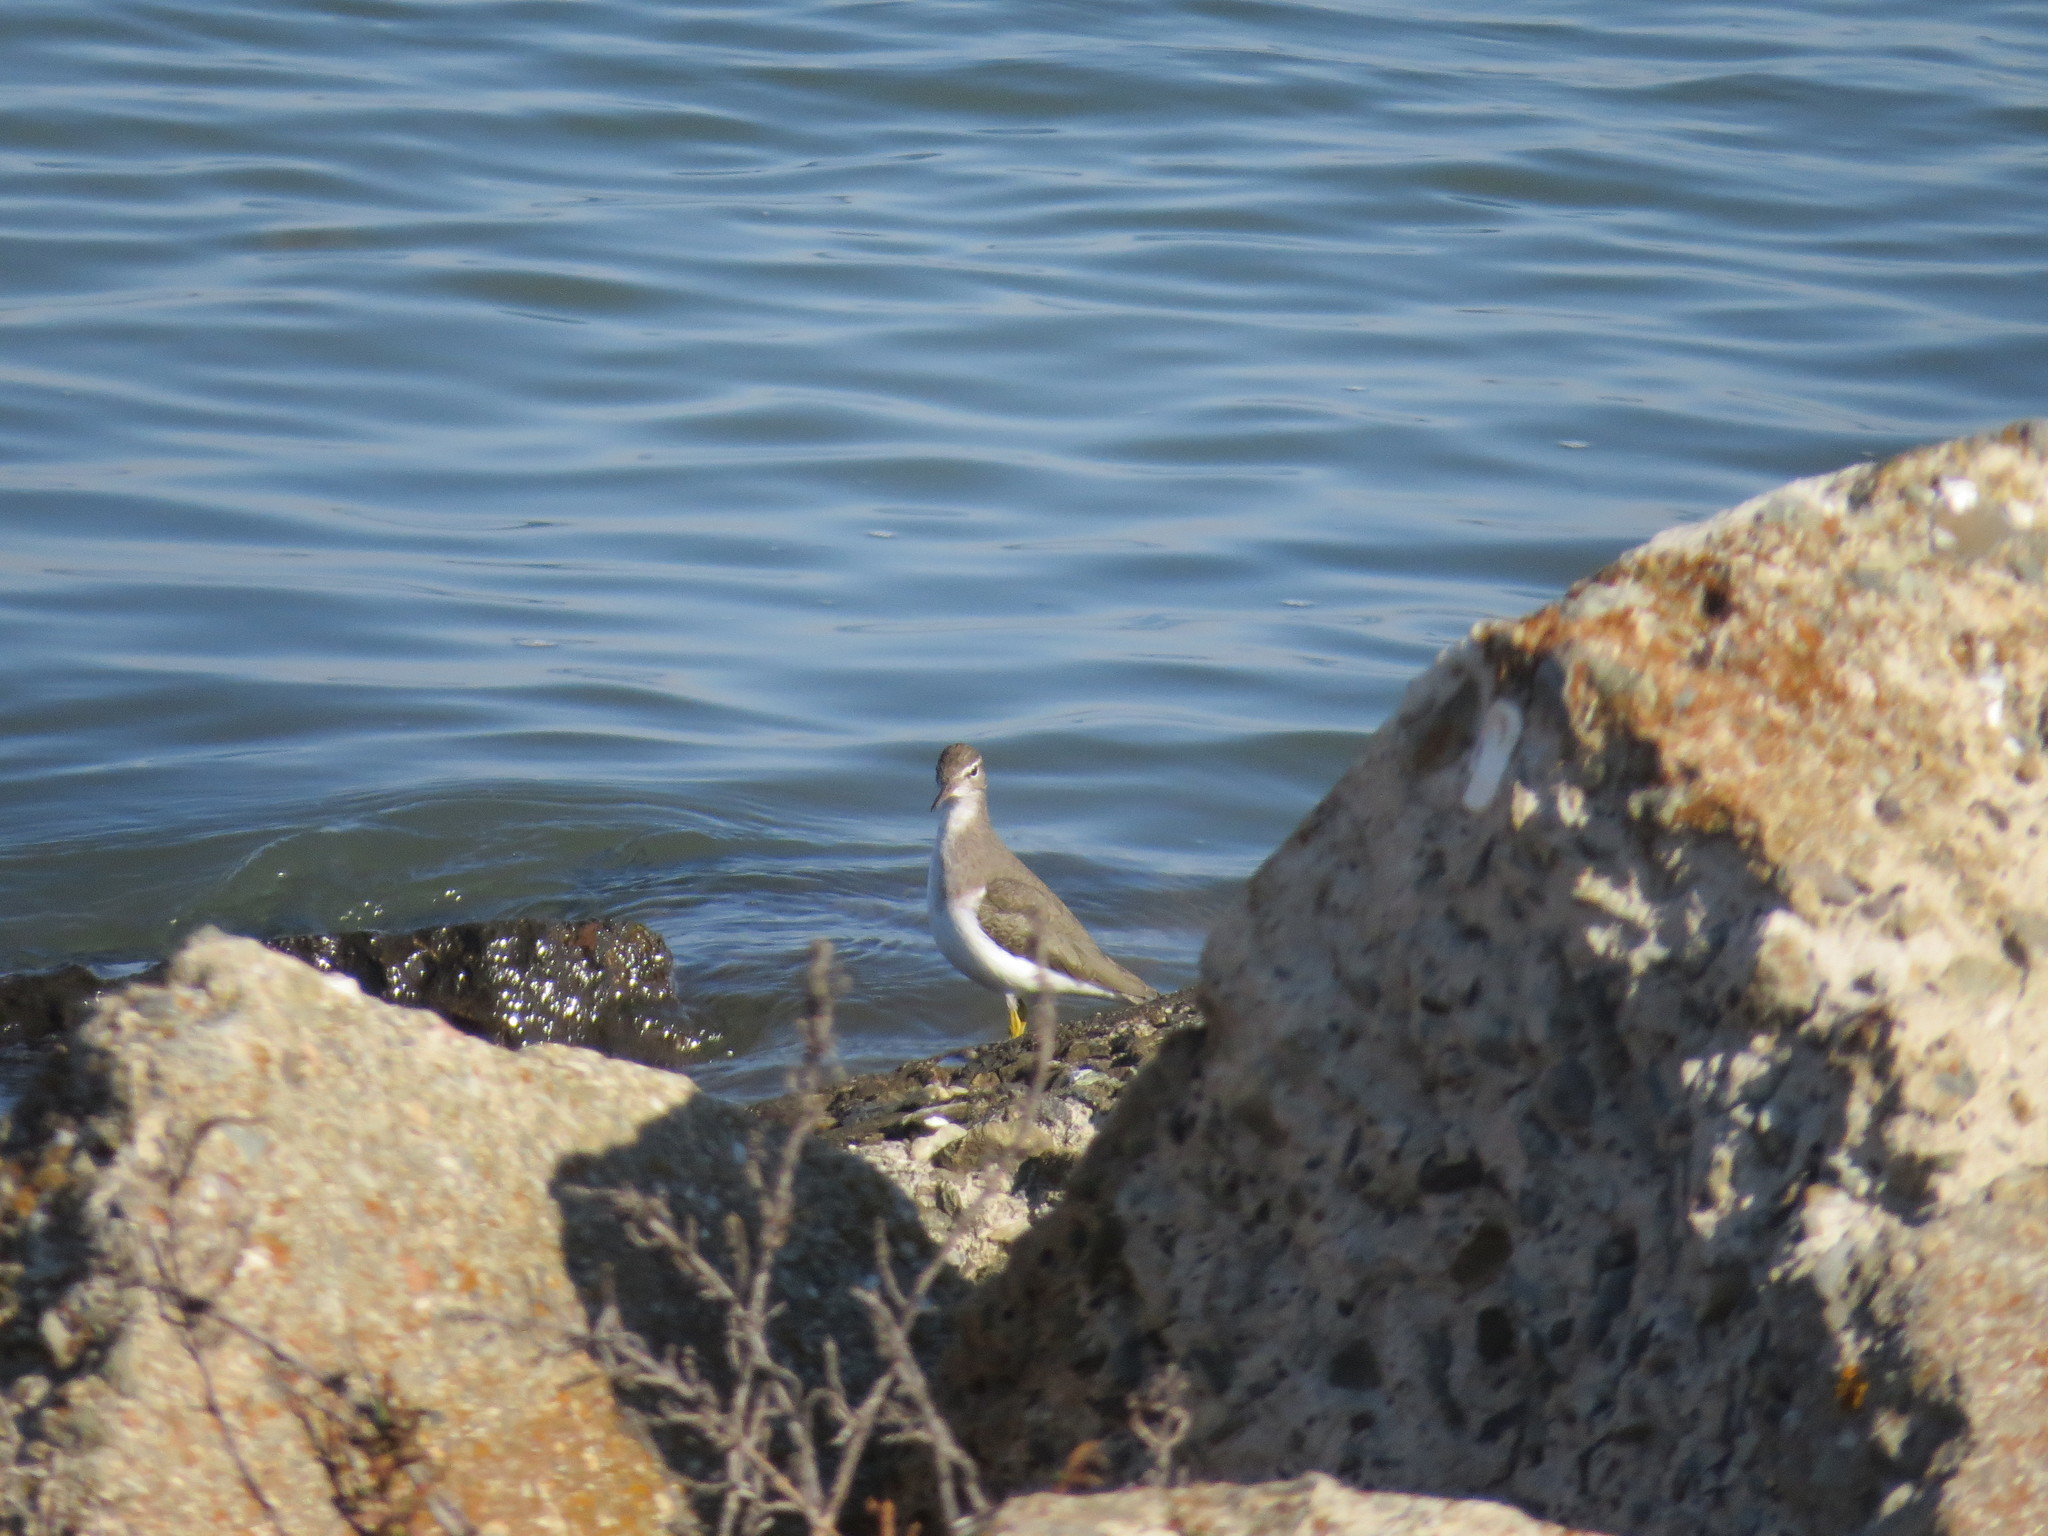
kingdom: Animalia
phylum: Chordata
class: Aves
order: Charadriiformes
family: Scolopacidae
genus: Actitis
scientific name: Actitis macularius
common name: Spotted sandpiper
